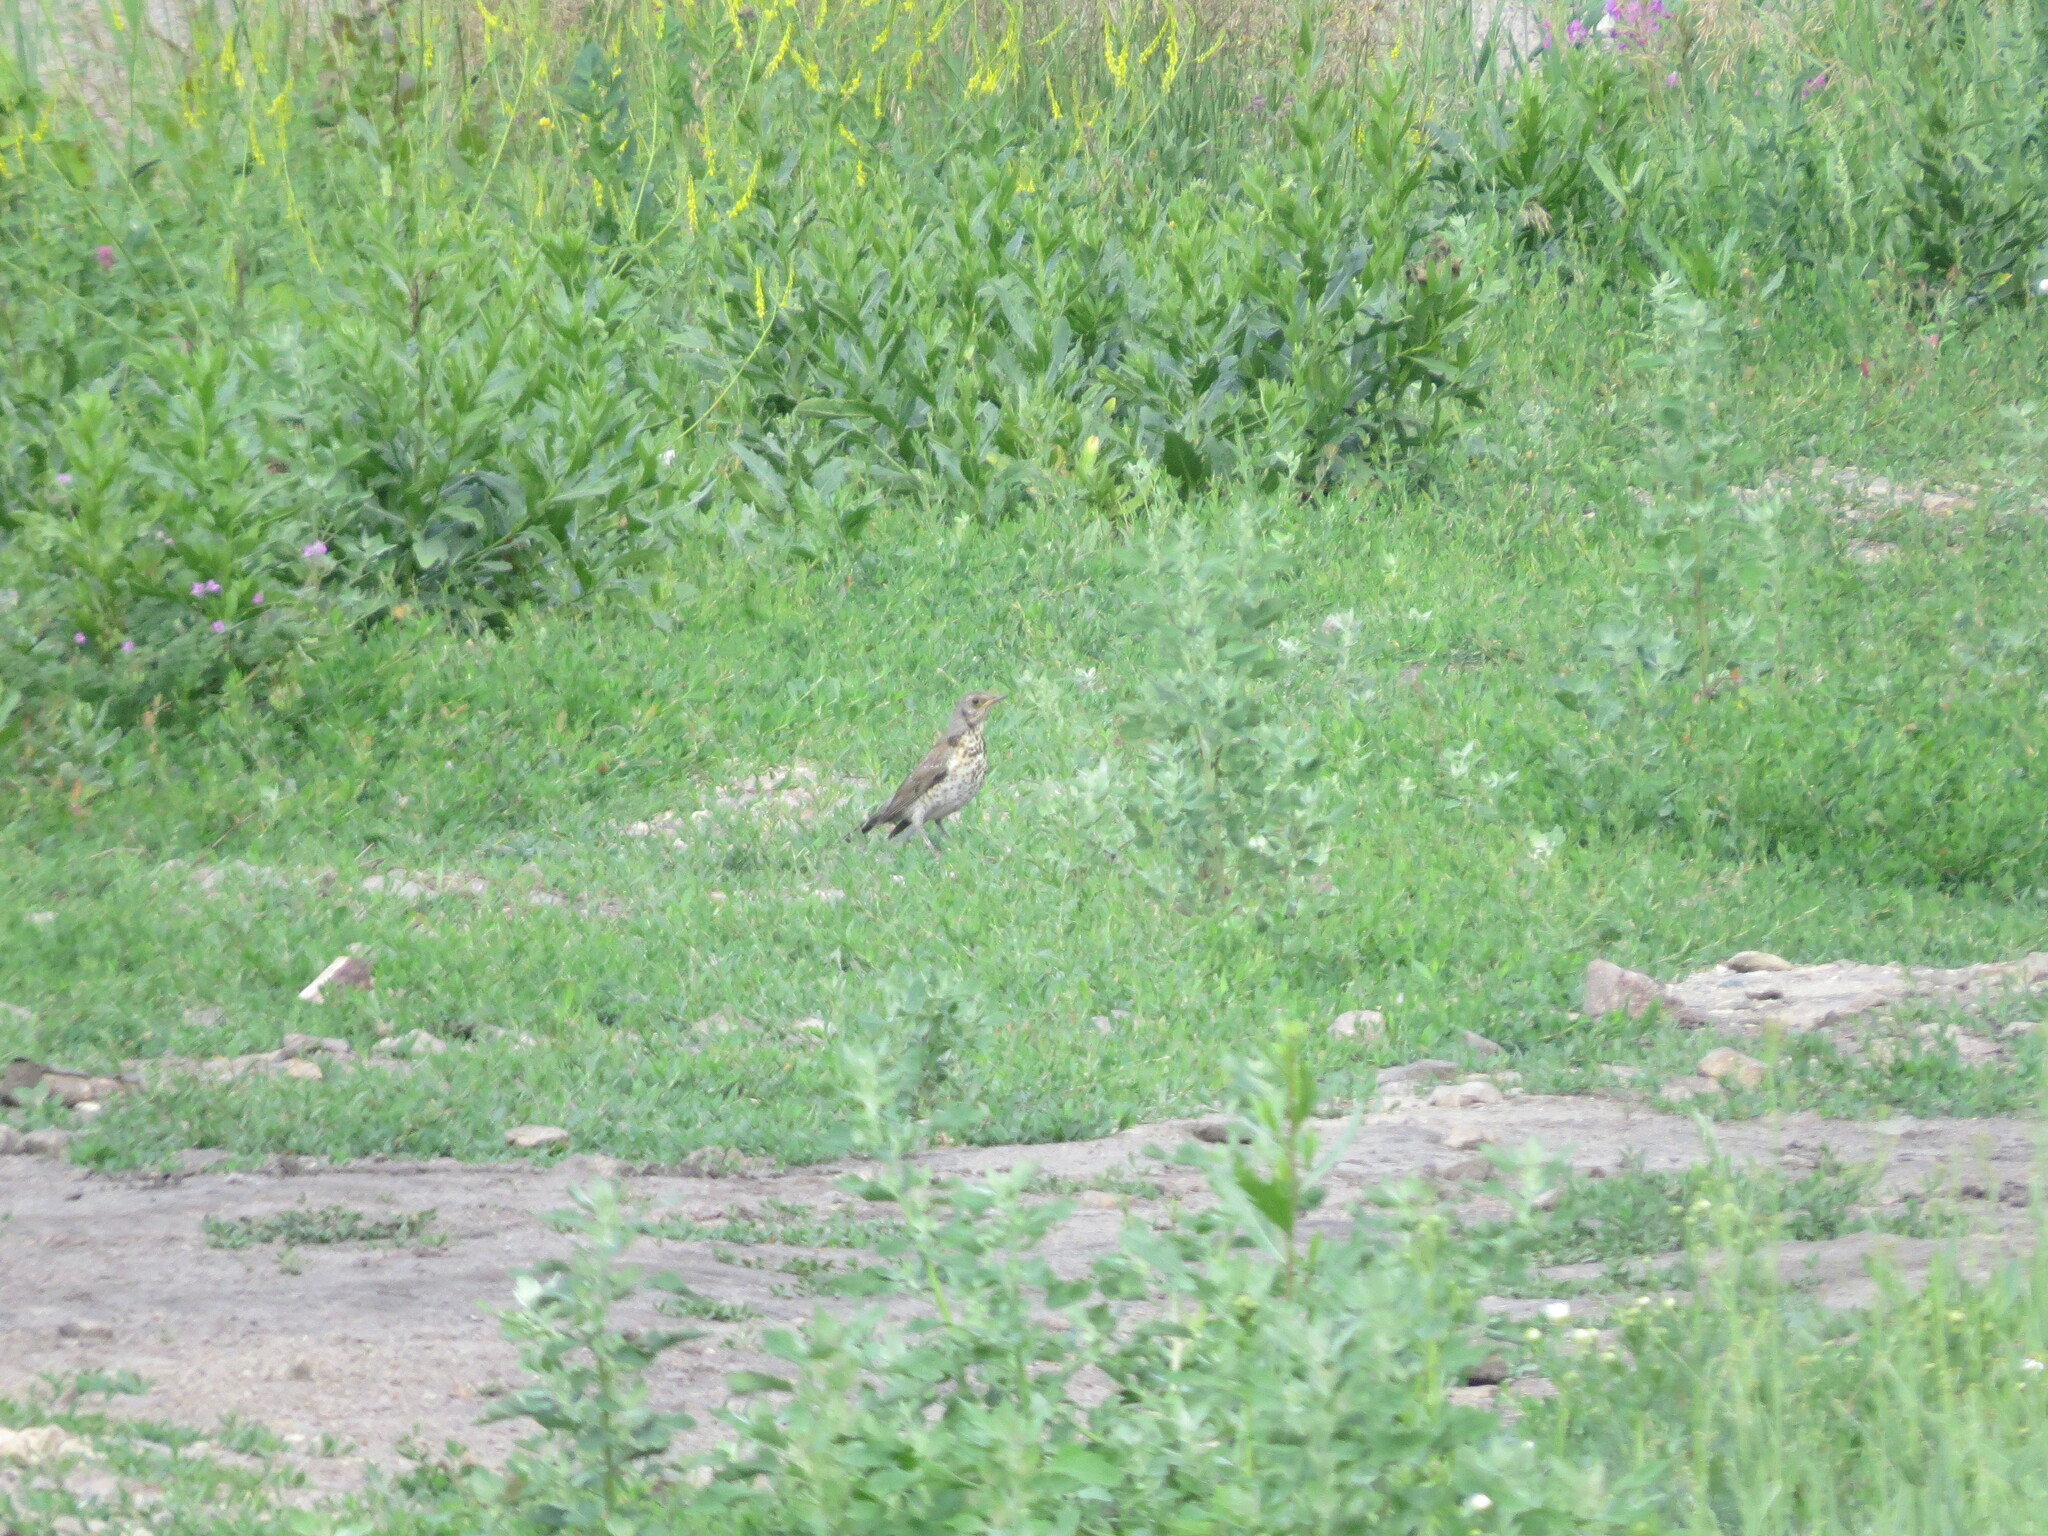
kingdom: Animalia
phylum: Chordata
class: Aves
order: Passeriformes
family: Turdidae
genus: Turdus
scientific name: Turdus pilaris
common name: Fieldfare
